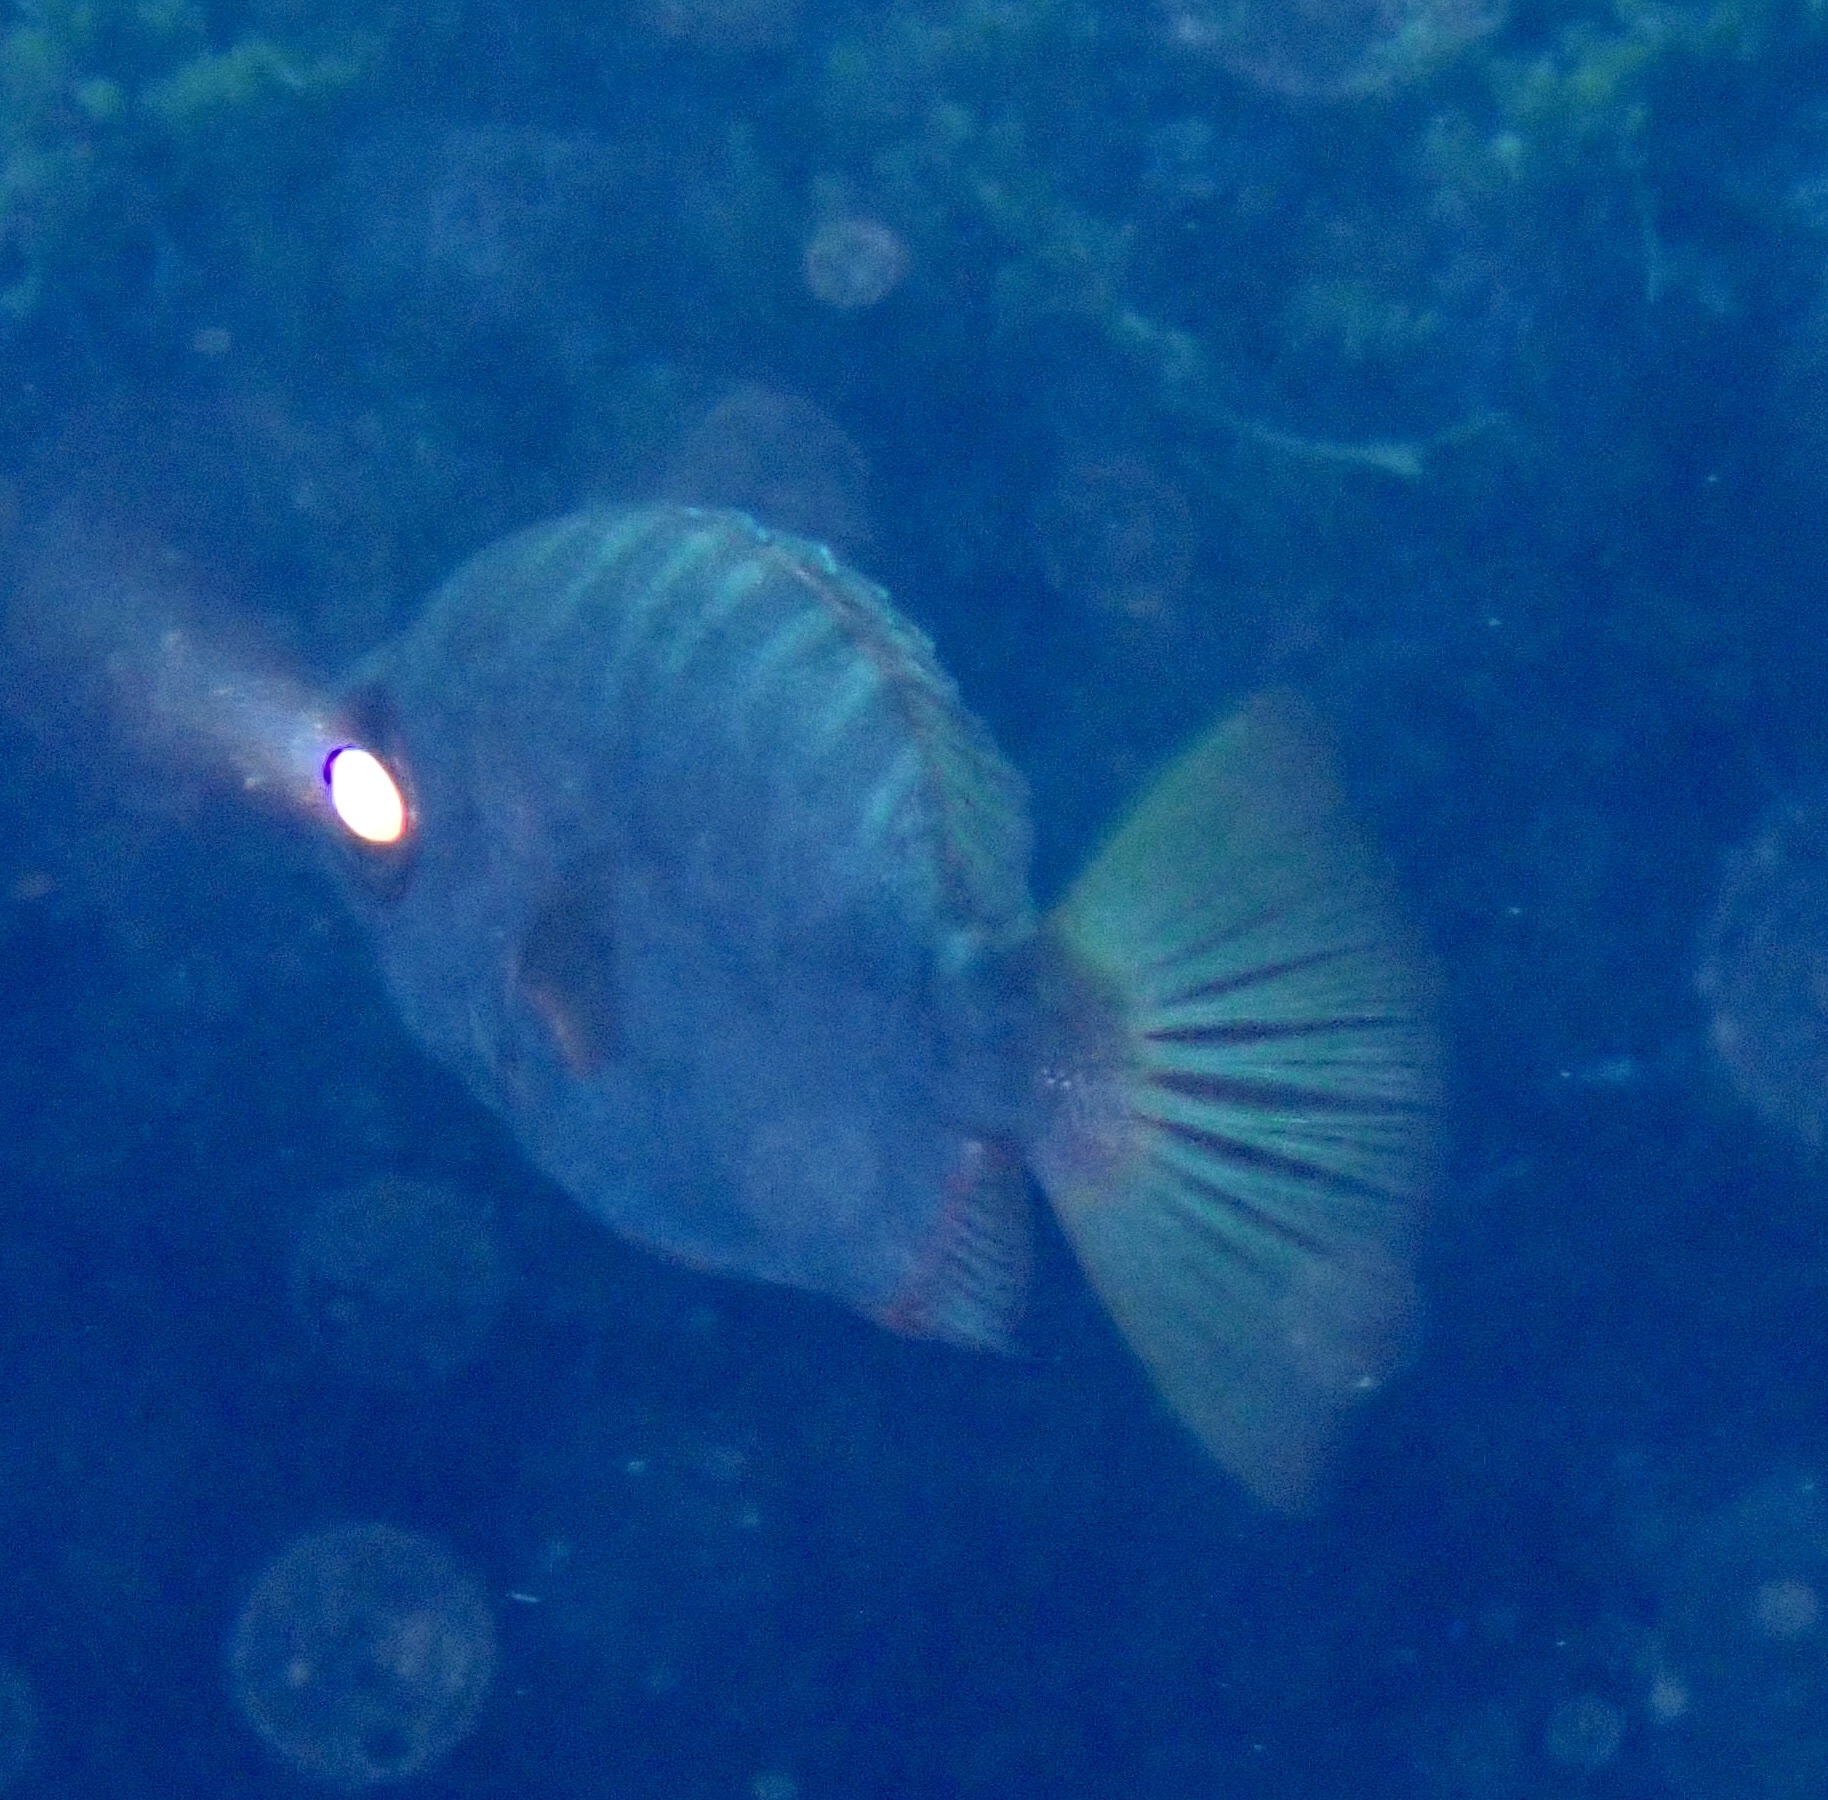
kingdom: Animalia
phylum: Chordata
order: Perciformes
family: Priacanthidae
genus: Heteropriacanthus
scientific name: Heteropriacanthus fulgens
